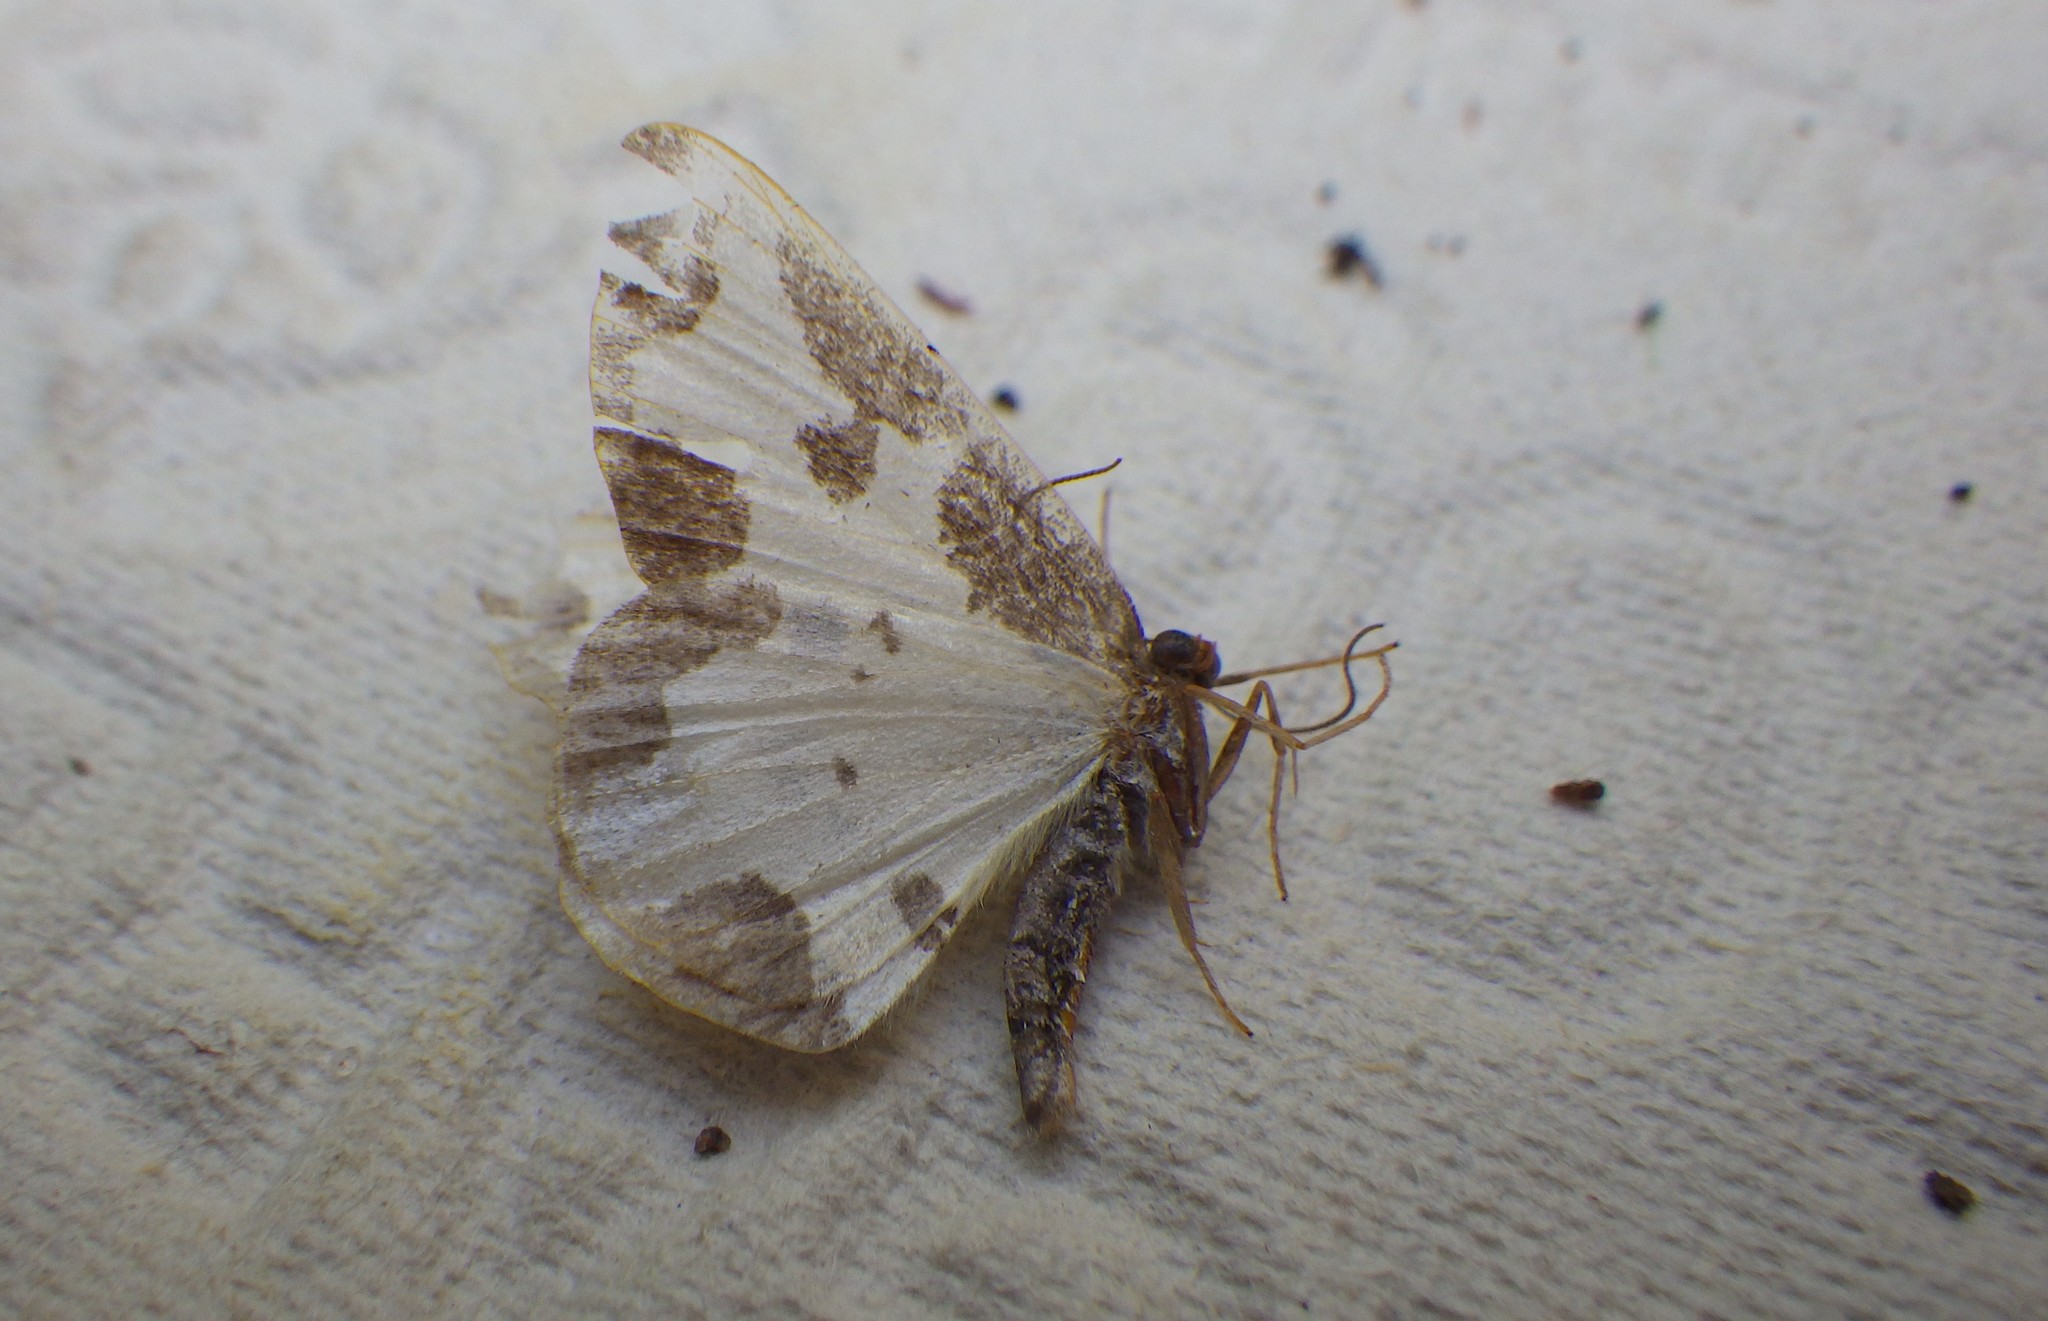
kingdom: Animalia
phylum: Arthropoda
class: Insecta
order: Lepidoptera
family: Geometridae
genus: Lomaspilis
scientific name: Lomaspilis marginata
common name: Clouded border
